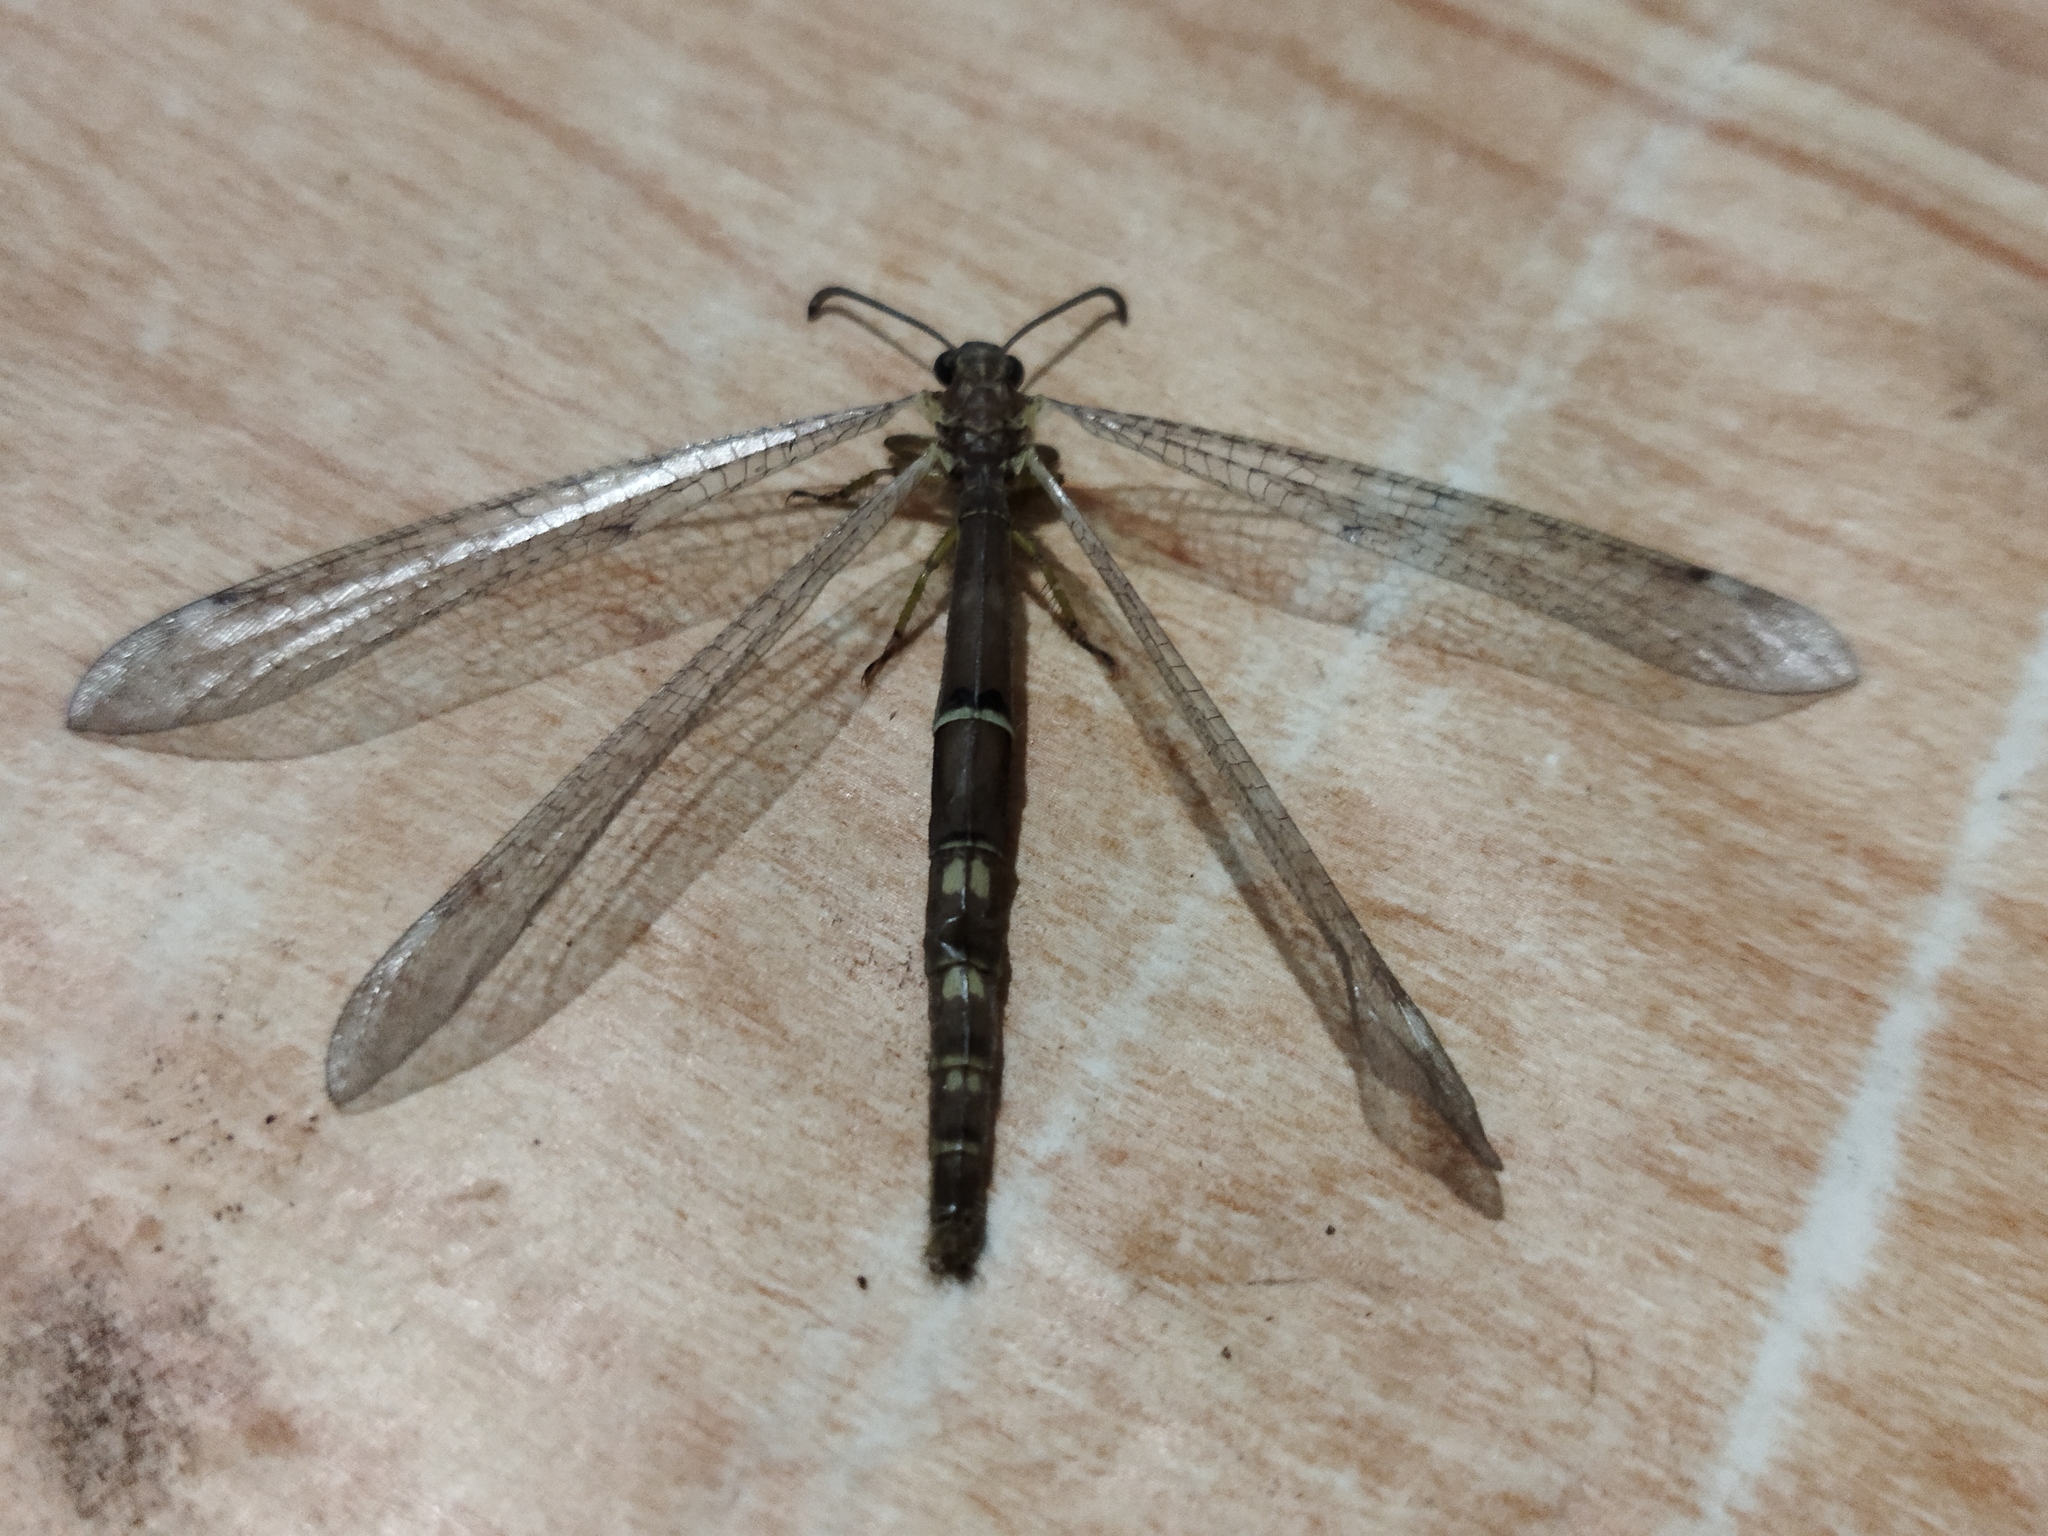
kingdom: Animalia
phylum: Arthropoda
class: Insecta
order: Neuroptera
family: Myrmeleontidae
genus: Distoleon
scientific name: Distoleon tetragrammicus
